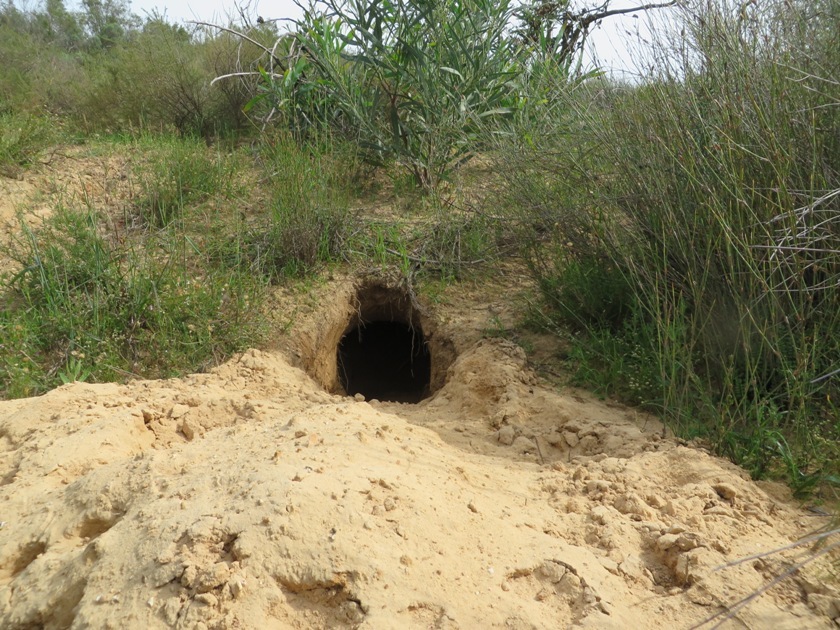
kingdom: Animalia
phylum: Chordata
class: Mammalia
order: Tubulidentata
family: Orycteropodidae
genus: Orycteropus
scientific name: Orycteropus afer
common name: Aardvark
